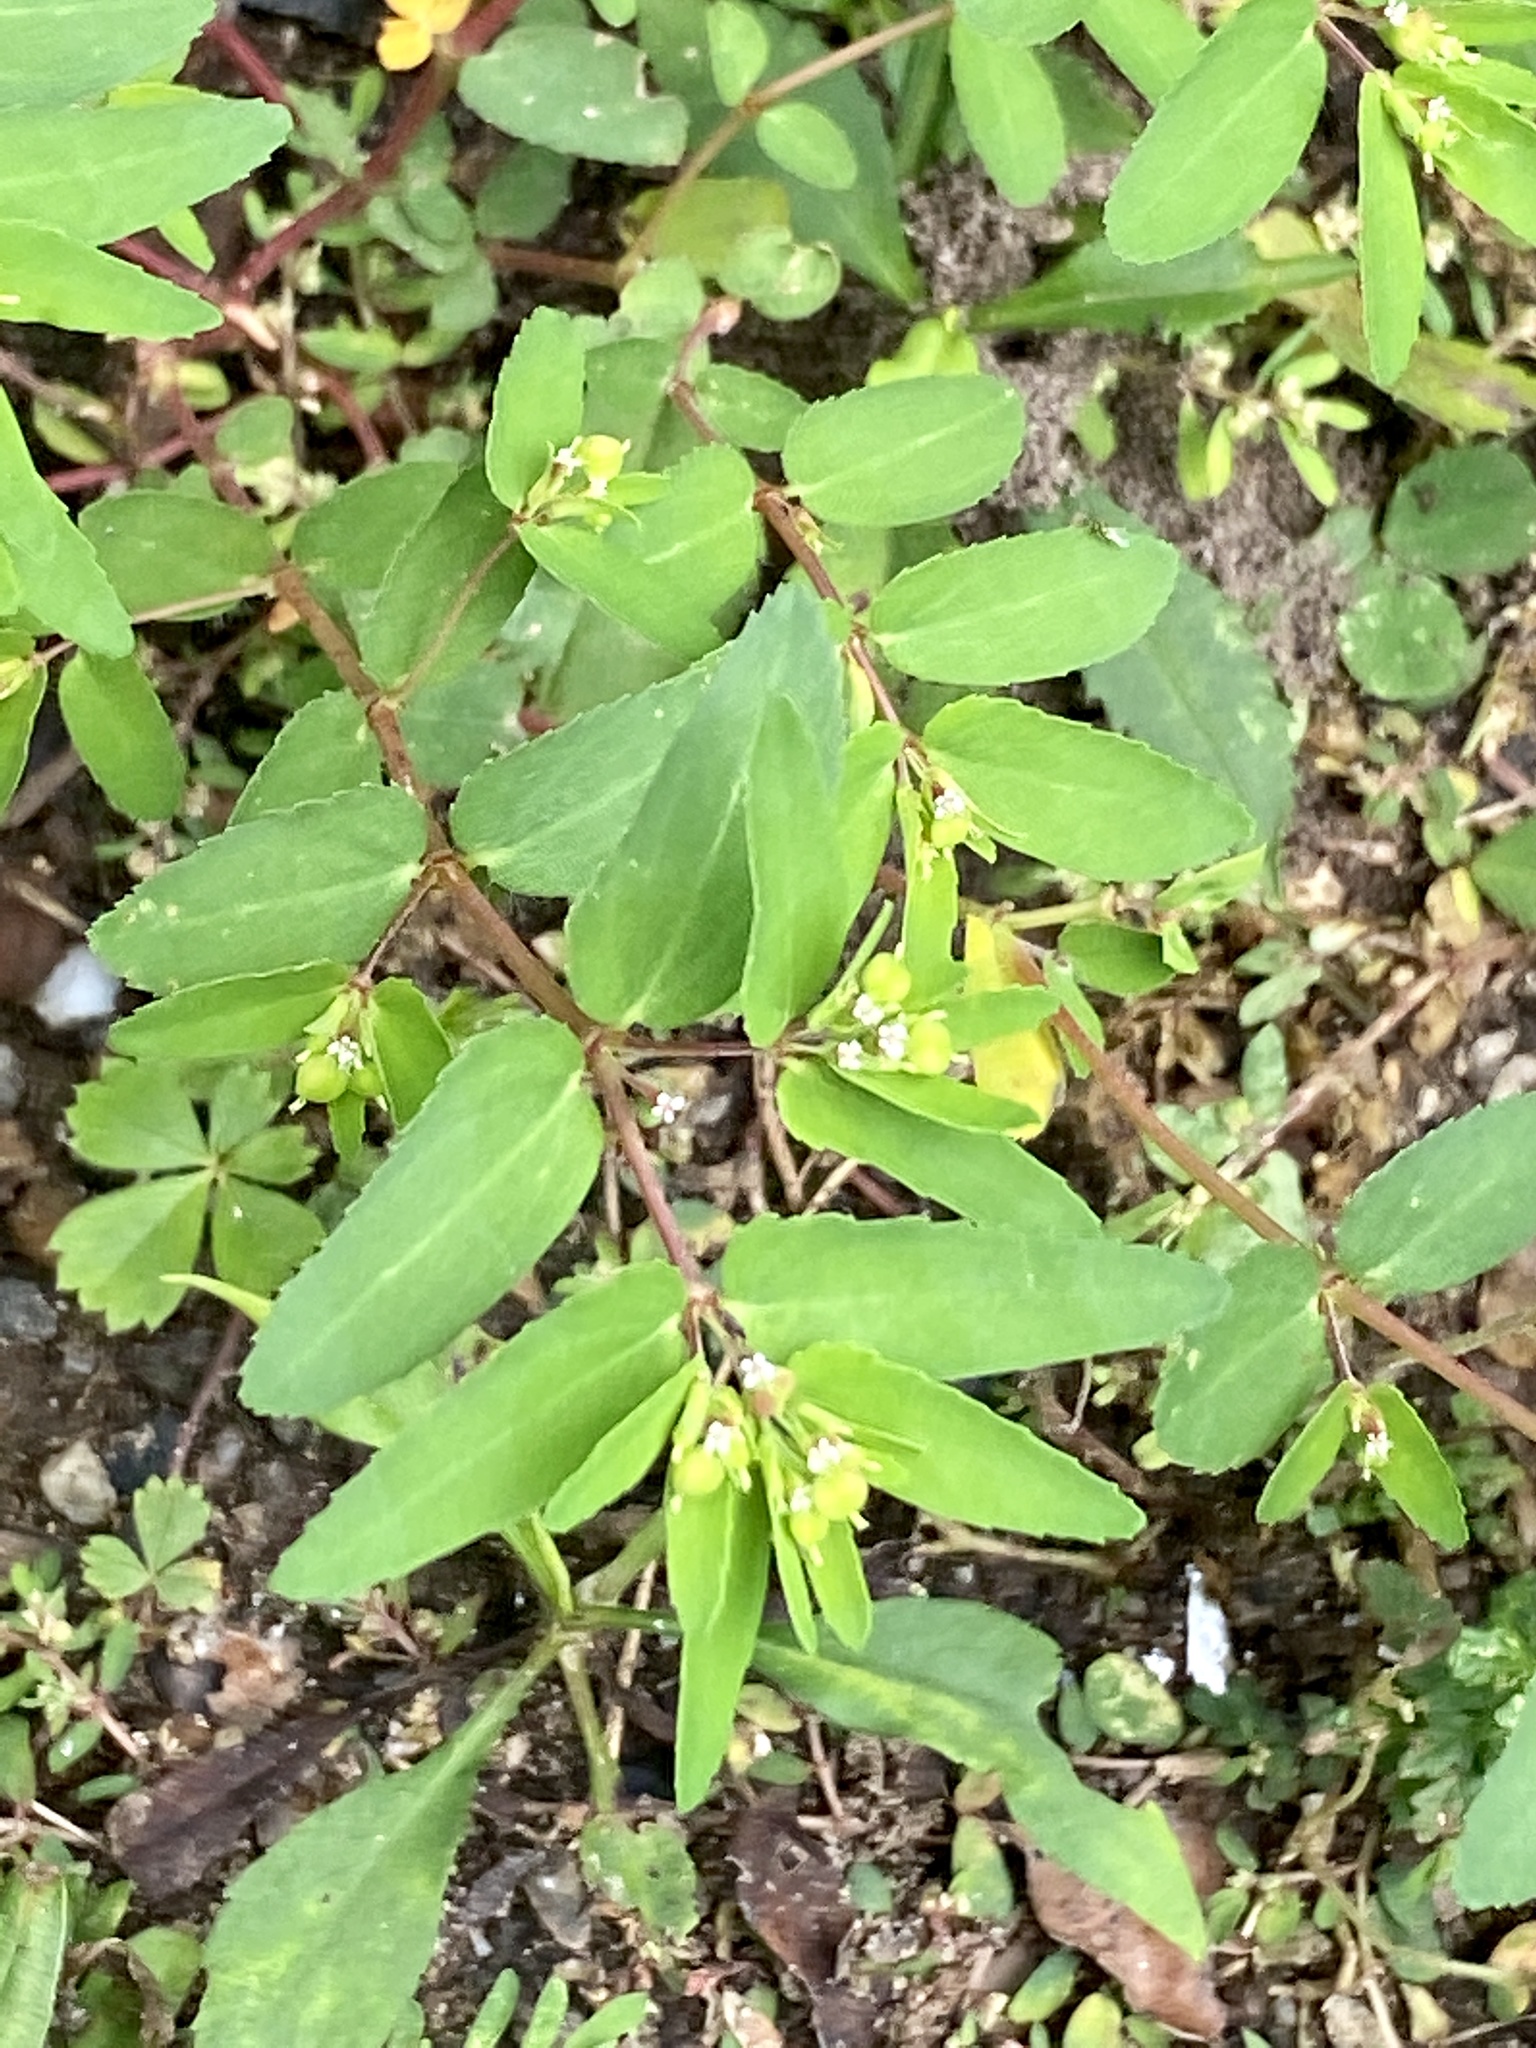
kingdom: Plantae
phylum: Tracheophyta
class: Magnoliopsida
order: Malpighiales
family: Euphorbiaceae
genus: Euphorbia
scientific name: Euphorbia nutans
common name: Eyebane
